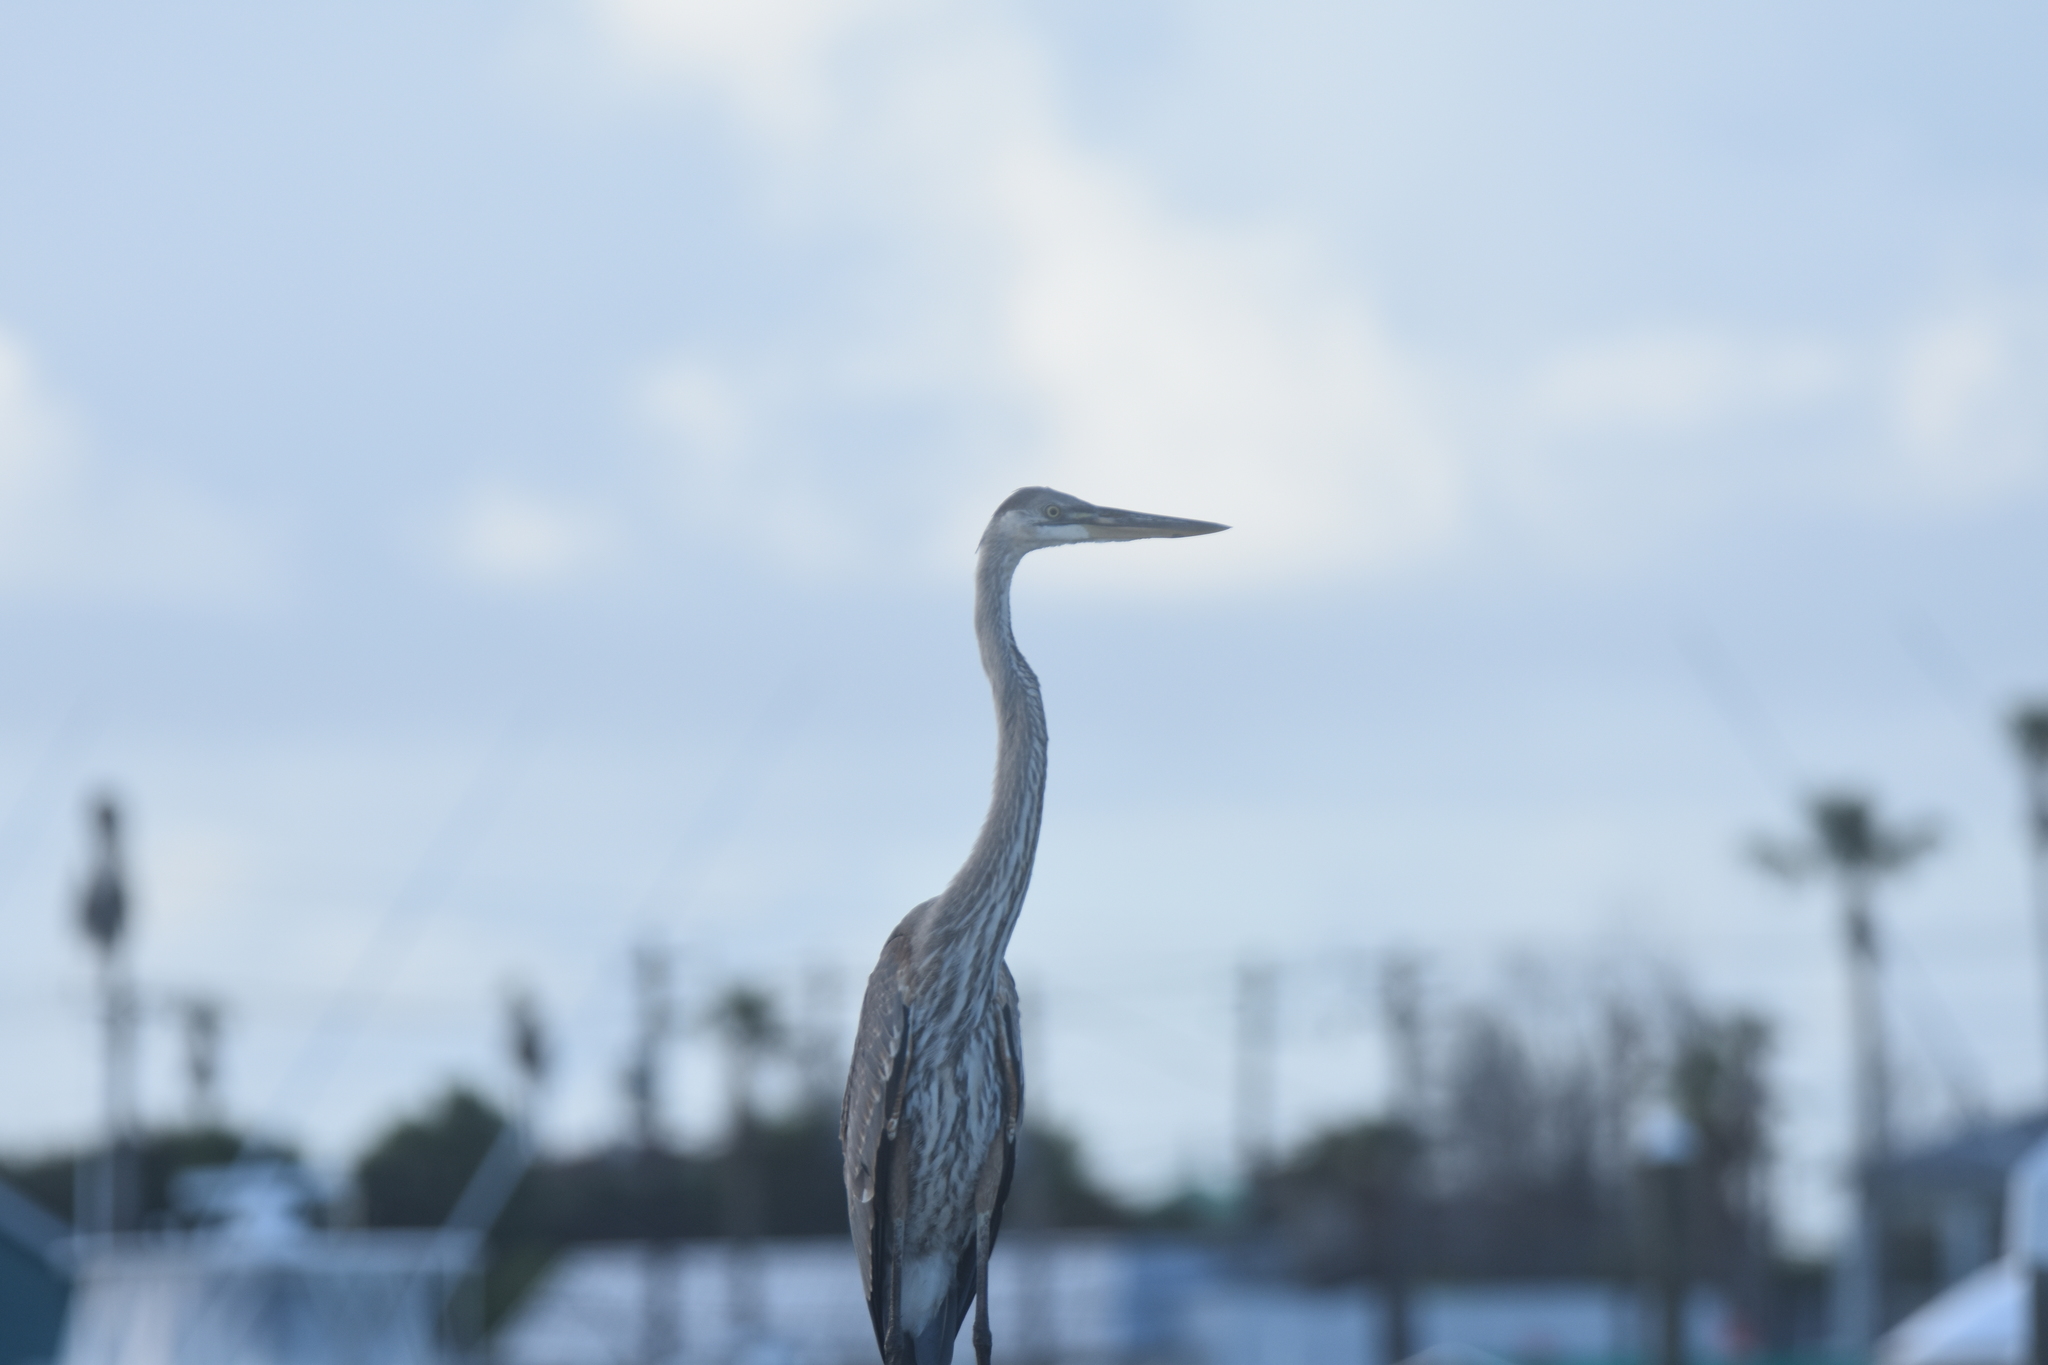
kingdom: Animalia
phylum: Chordata
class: Aves
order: Pelecaniformes
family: Ardeidae
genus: Ardea
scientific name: Ardea herodias
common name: Great blue heron
